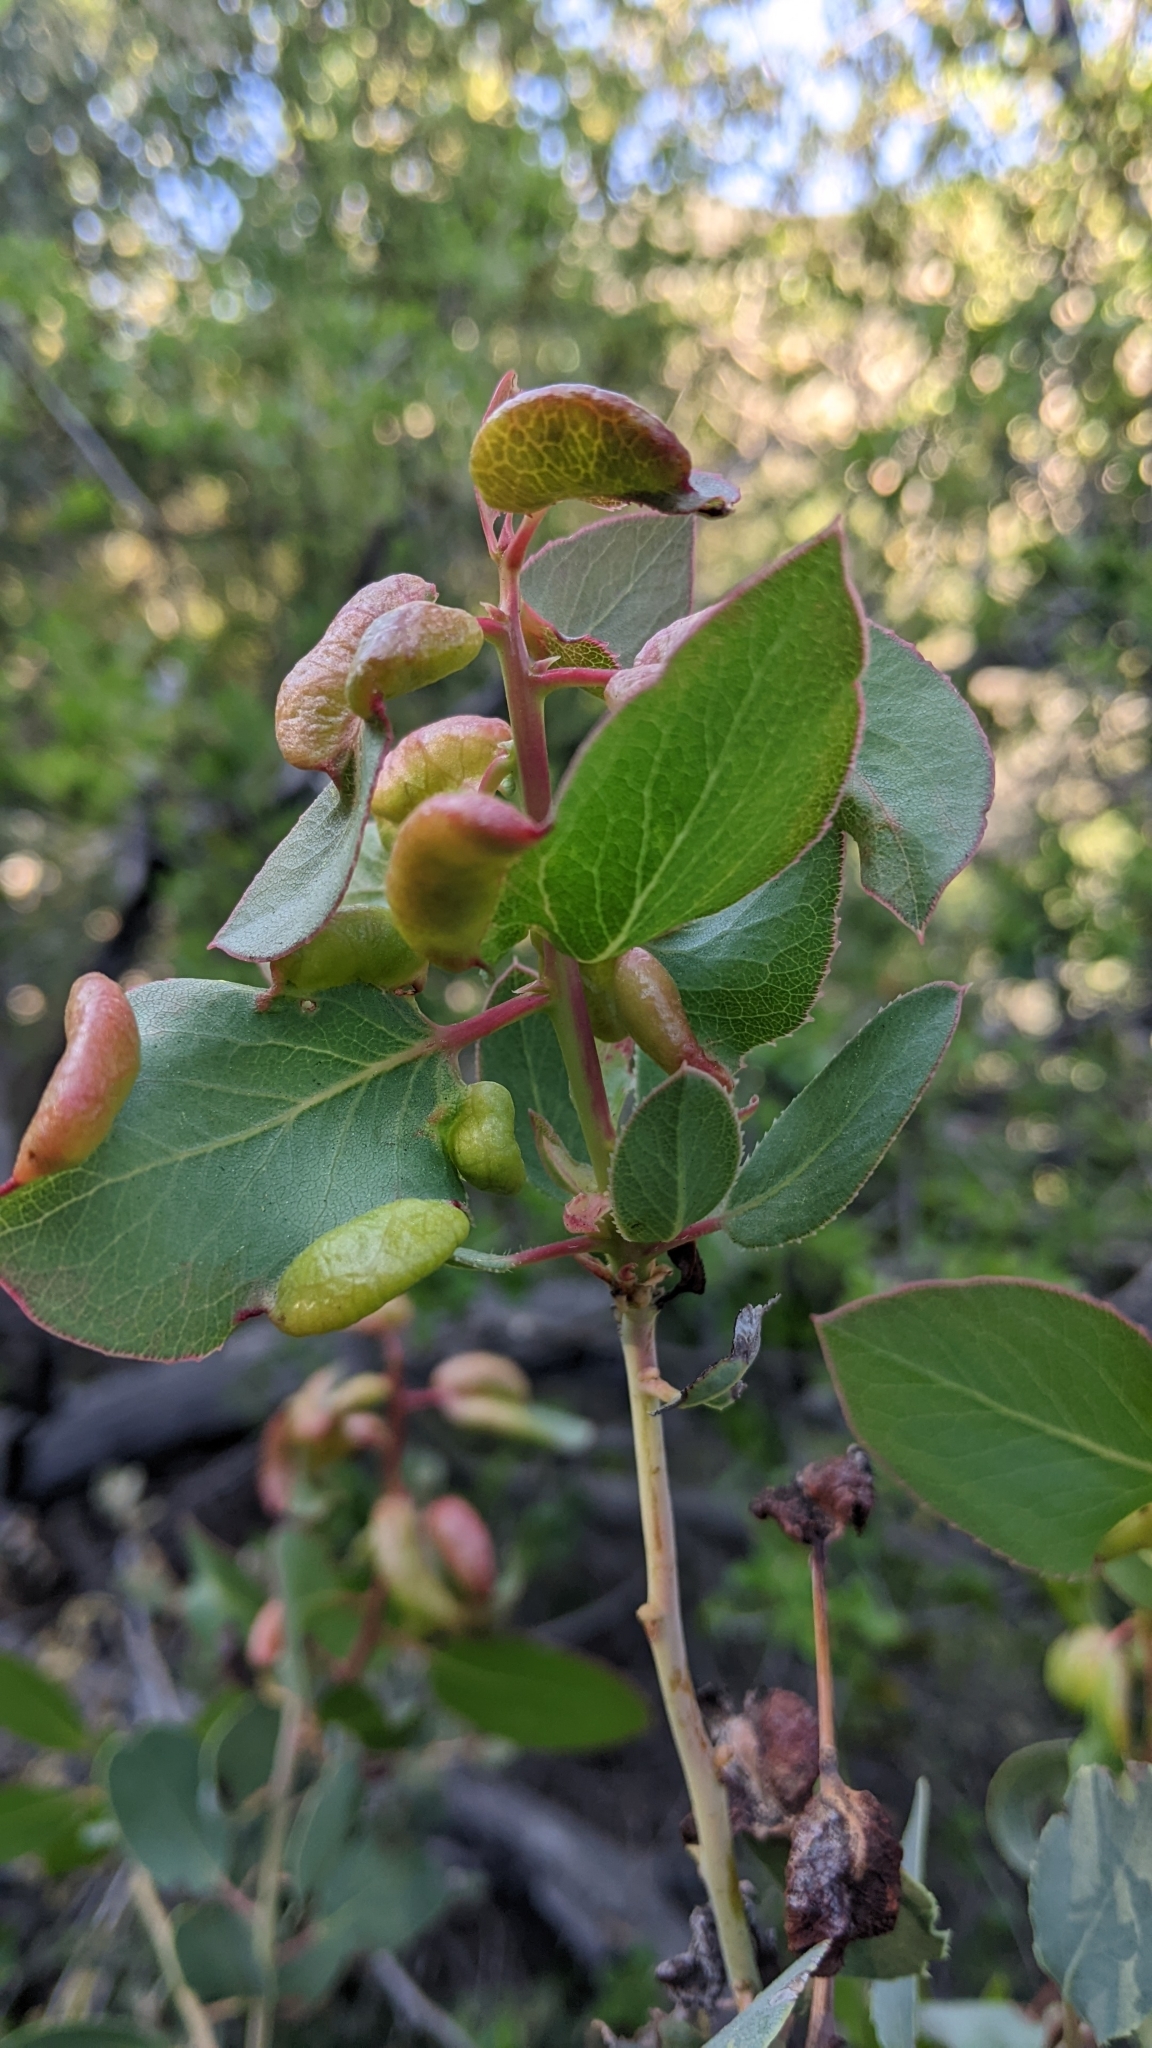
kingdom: Plantae
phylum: Tracheophyta
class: Magnoliopsida
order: Ericales
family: Ericaceae
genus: Arctostaphylos
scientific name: Arctostaphylos glauca
